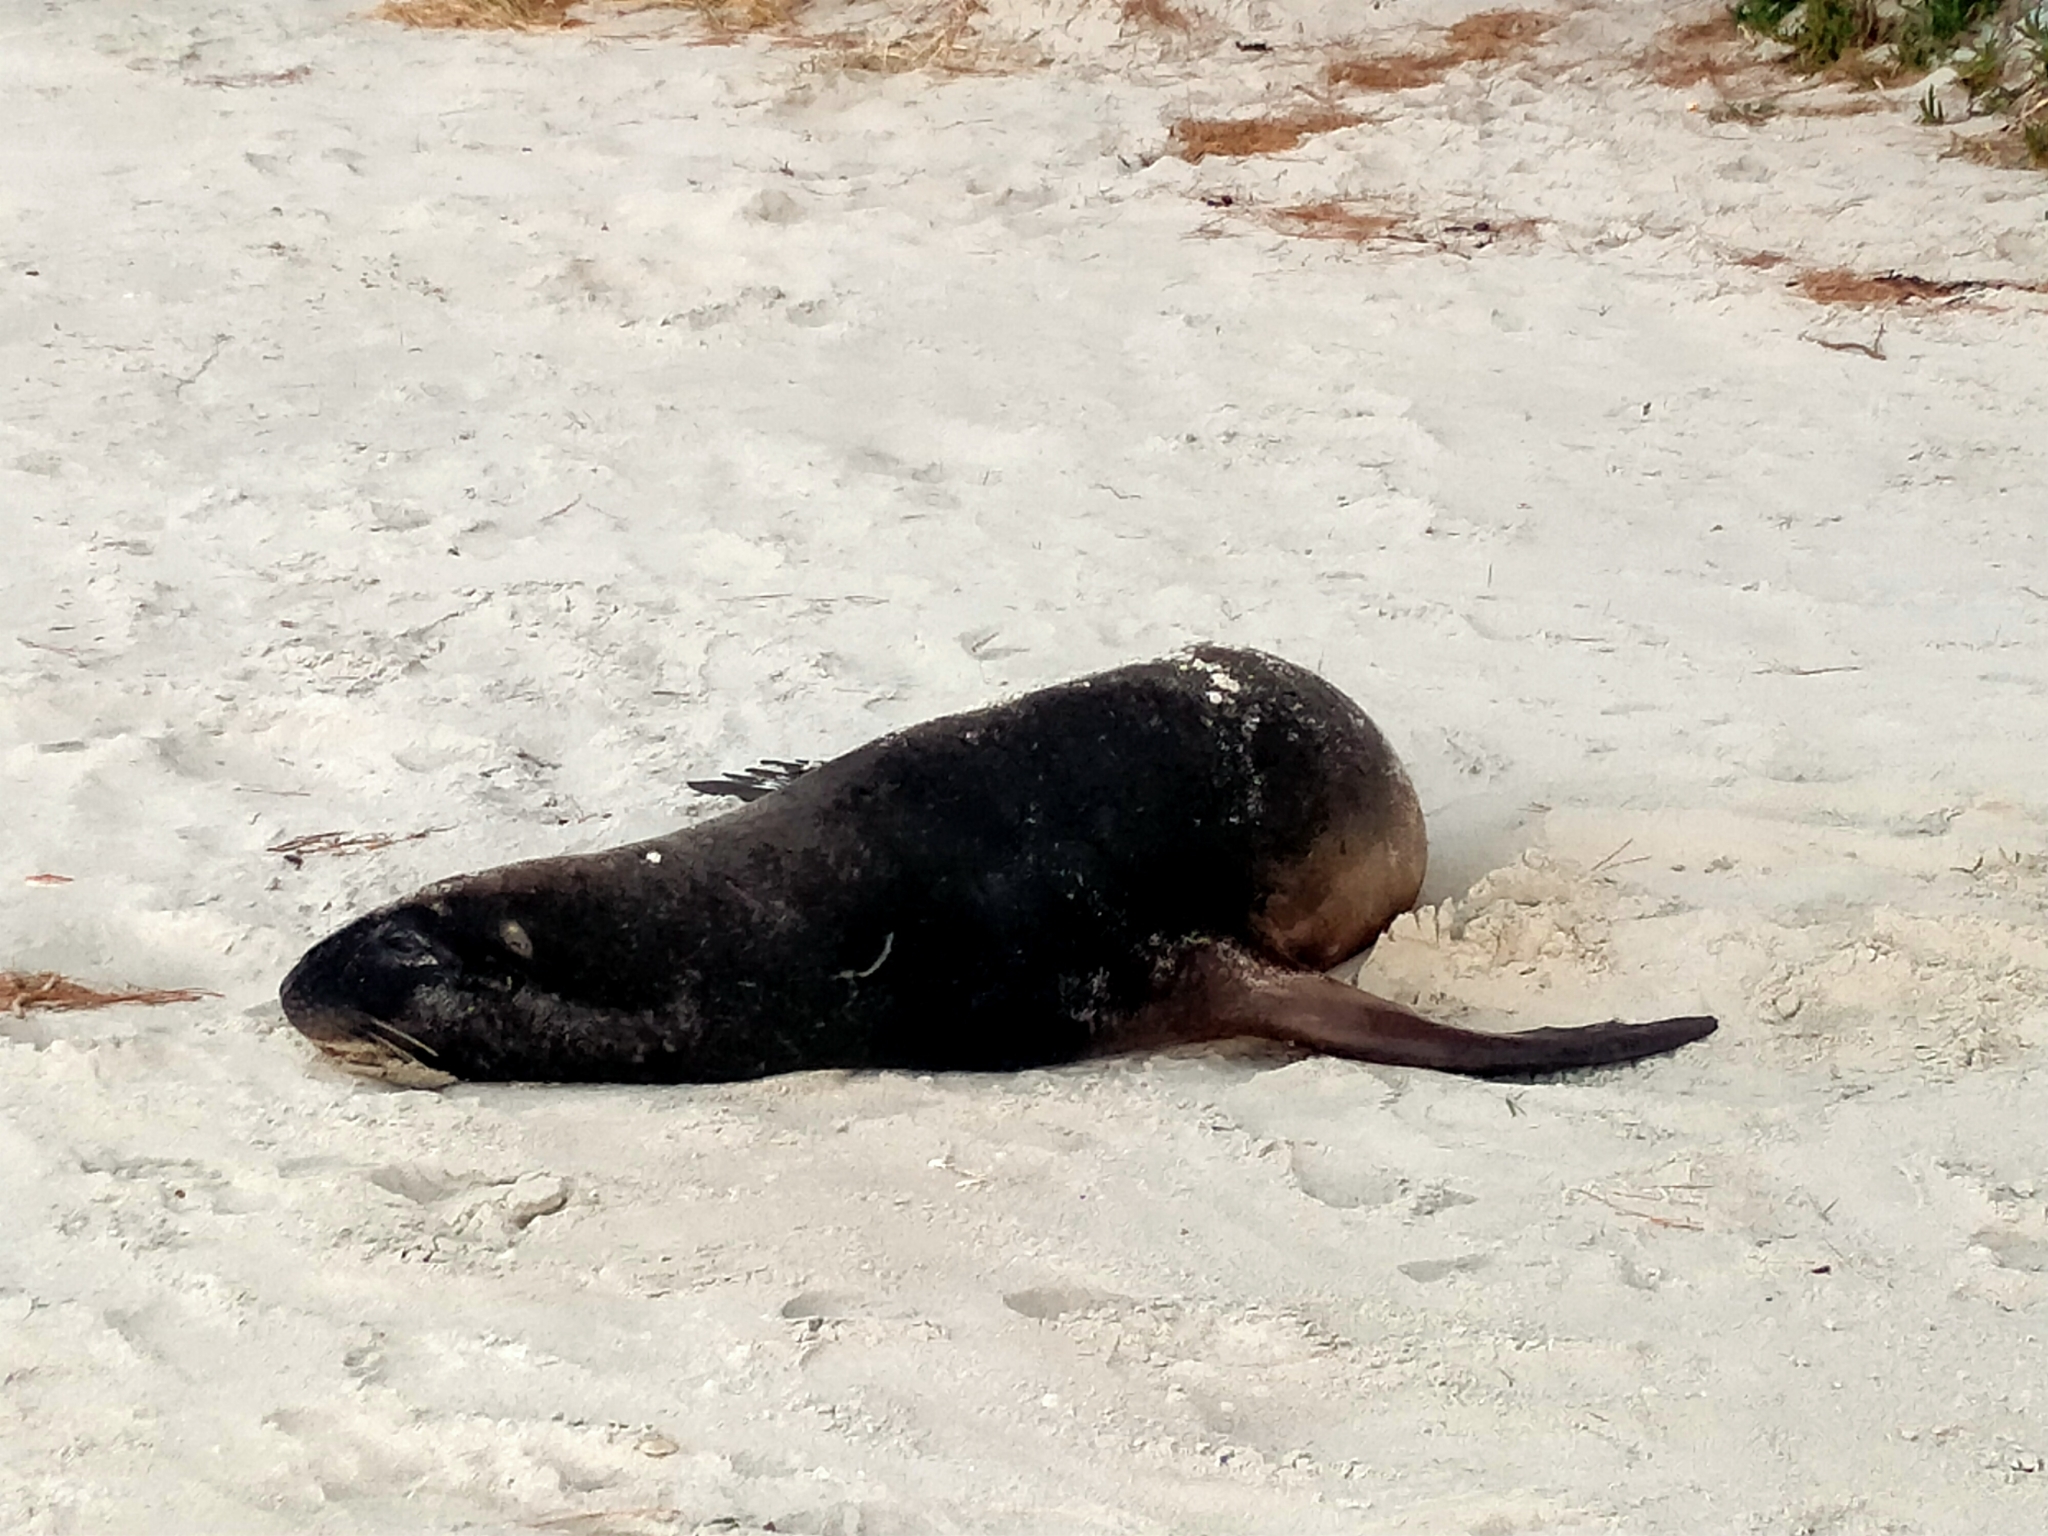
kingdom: Animalia
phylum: Chordata
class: Mammalia
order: Carnivora
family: Otariidae
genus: Phocarctos
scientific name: Phocarctos hookeri
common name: New zealand sea lion
